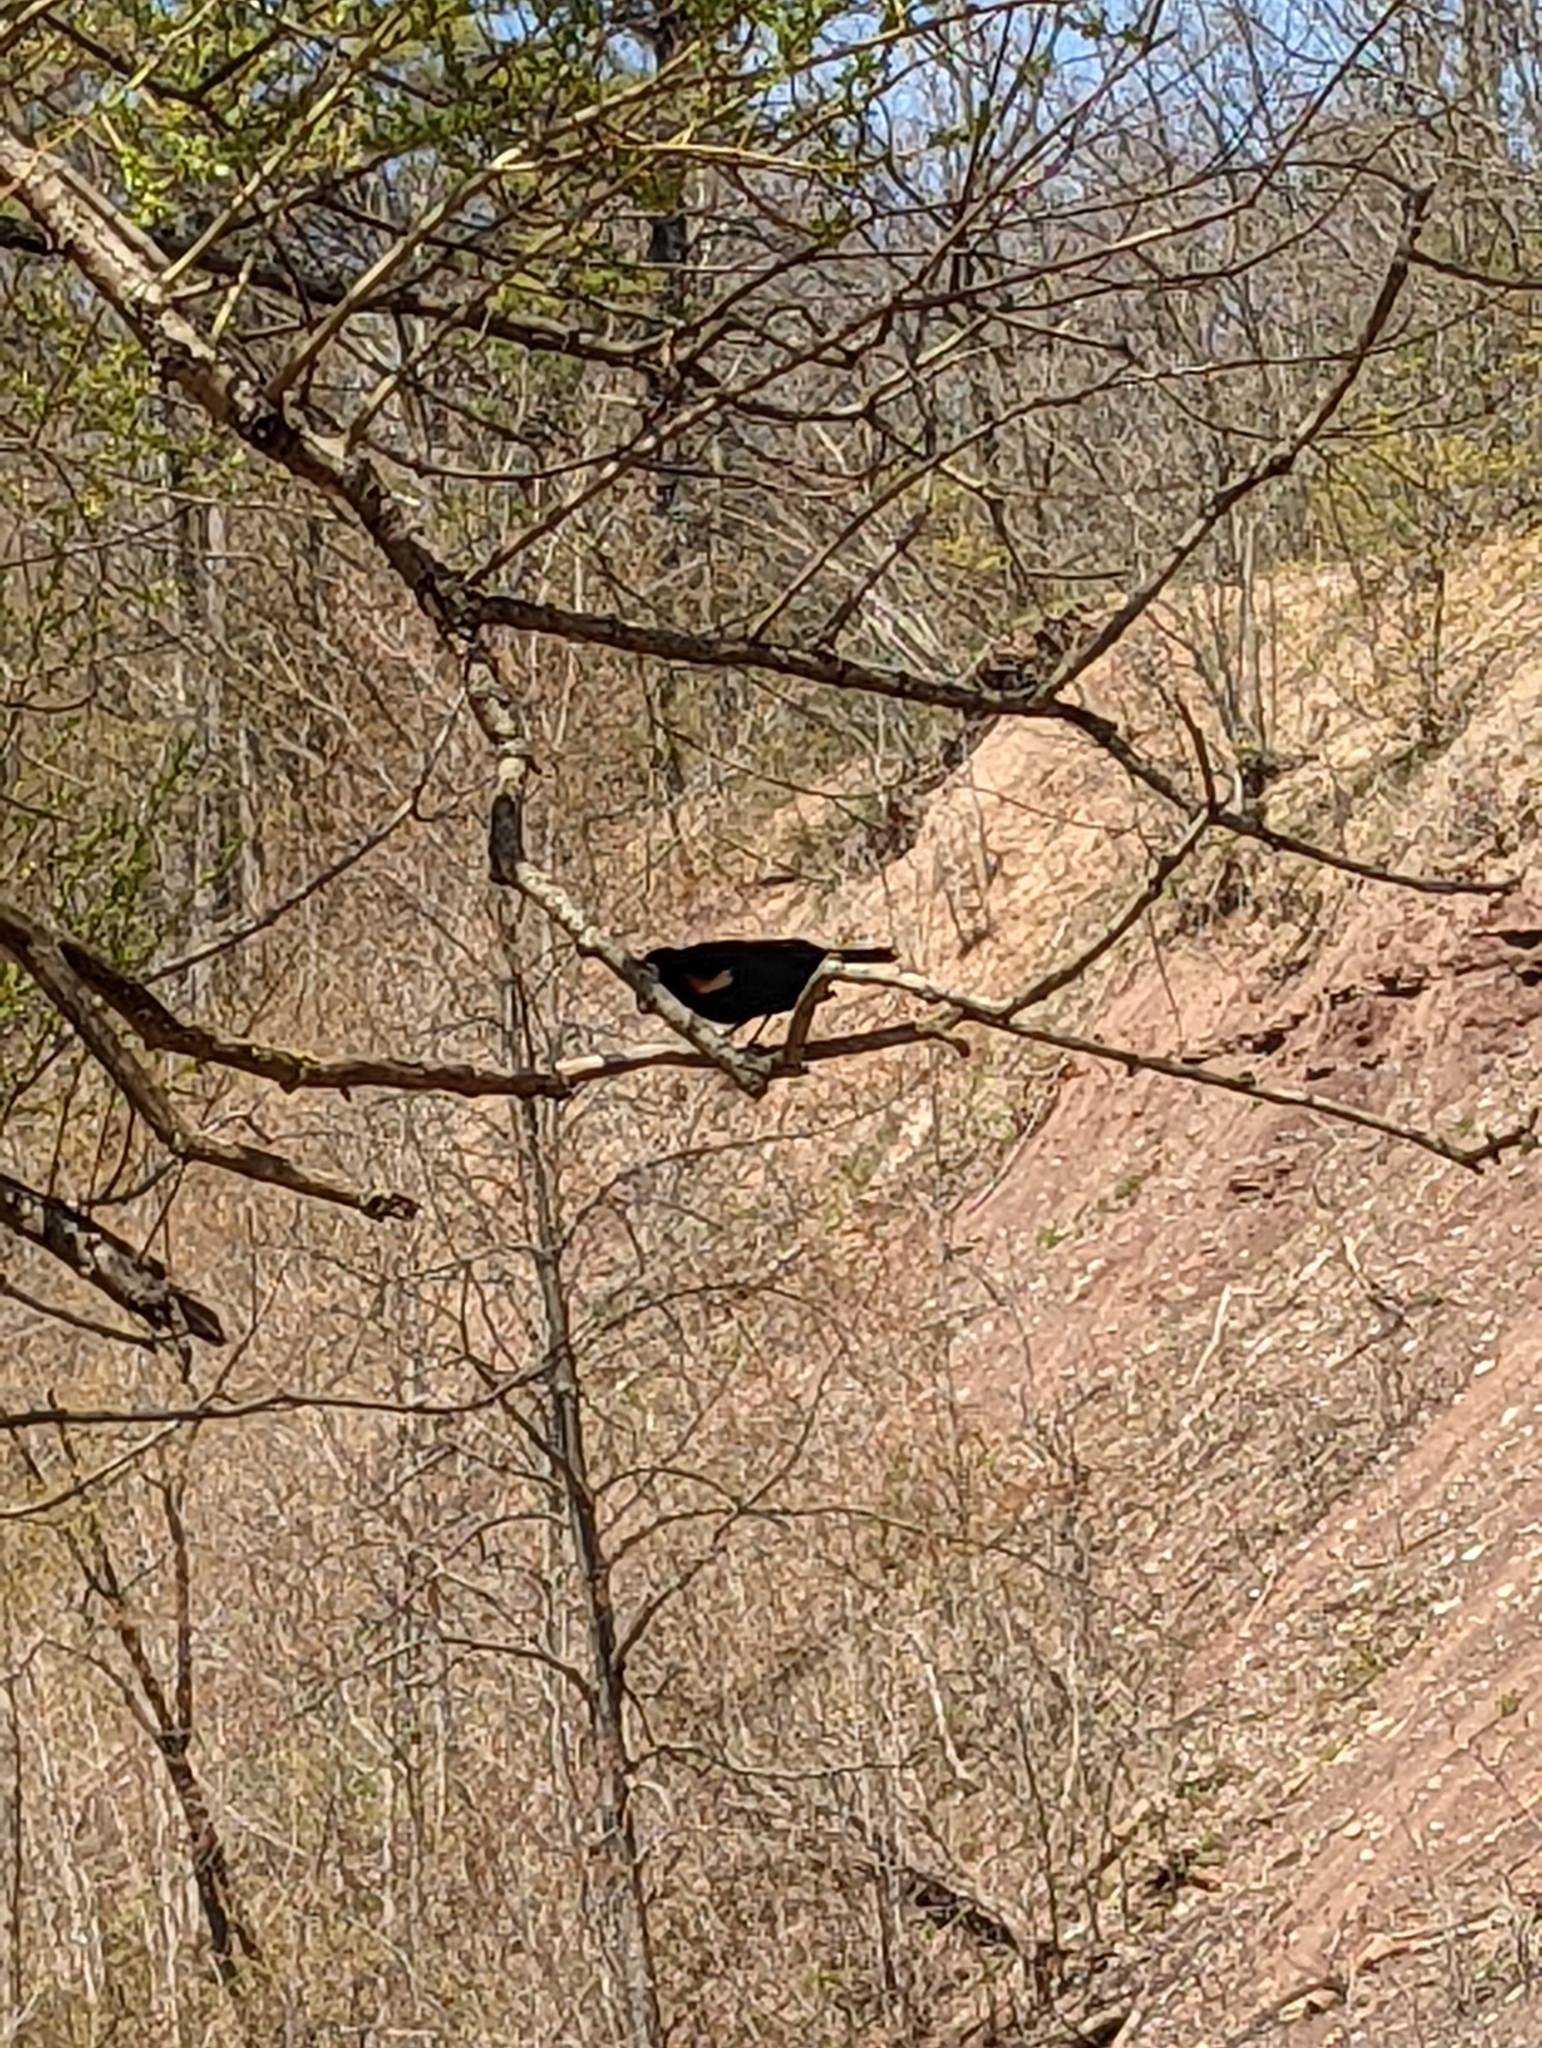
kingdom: Animalia
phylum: Chordata
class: Aves
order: Passeriformes
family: Icteridae
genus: Agelaius
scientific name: Agelaius phoeniceus
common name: Red-winged blackbird
